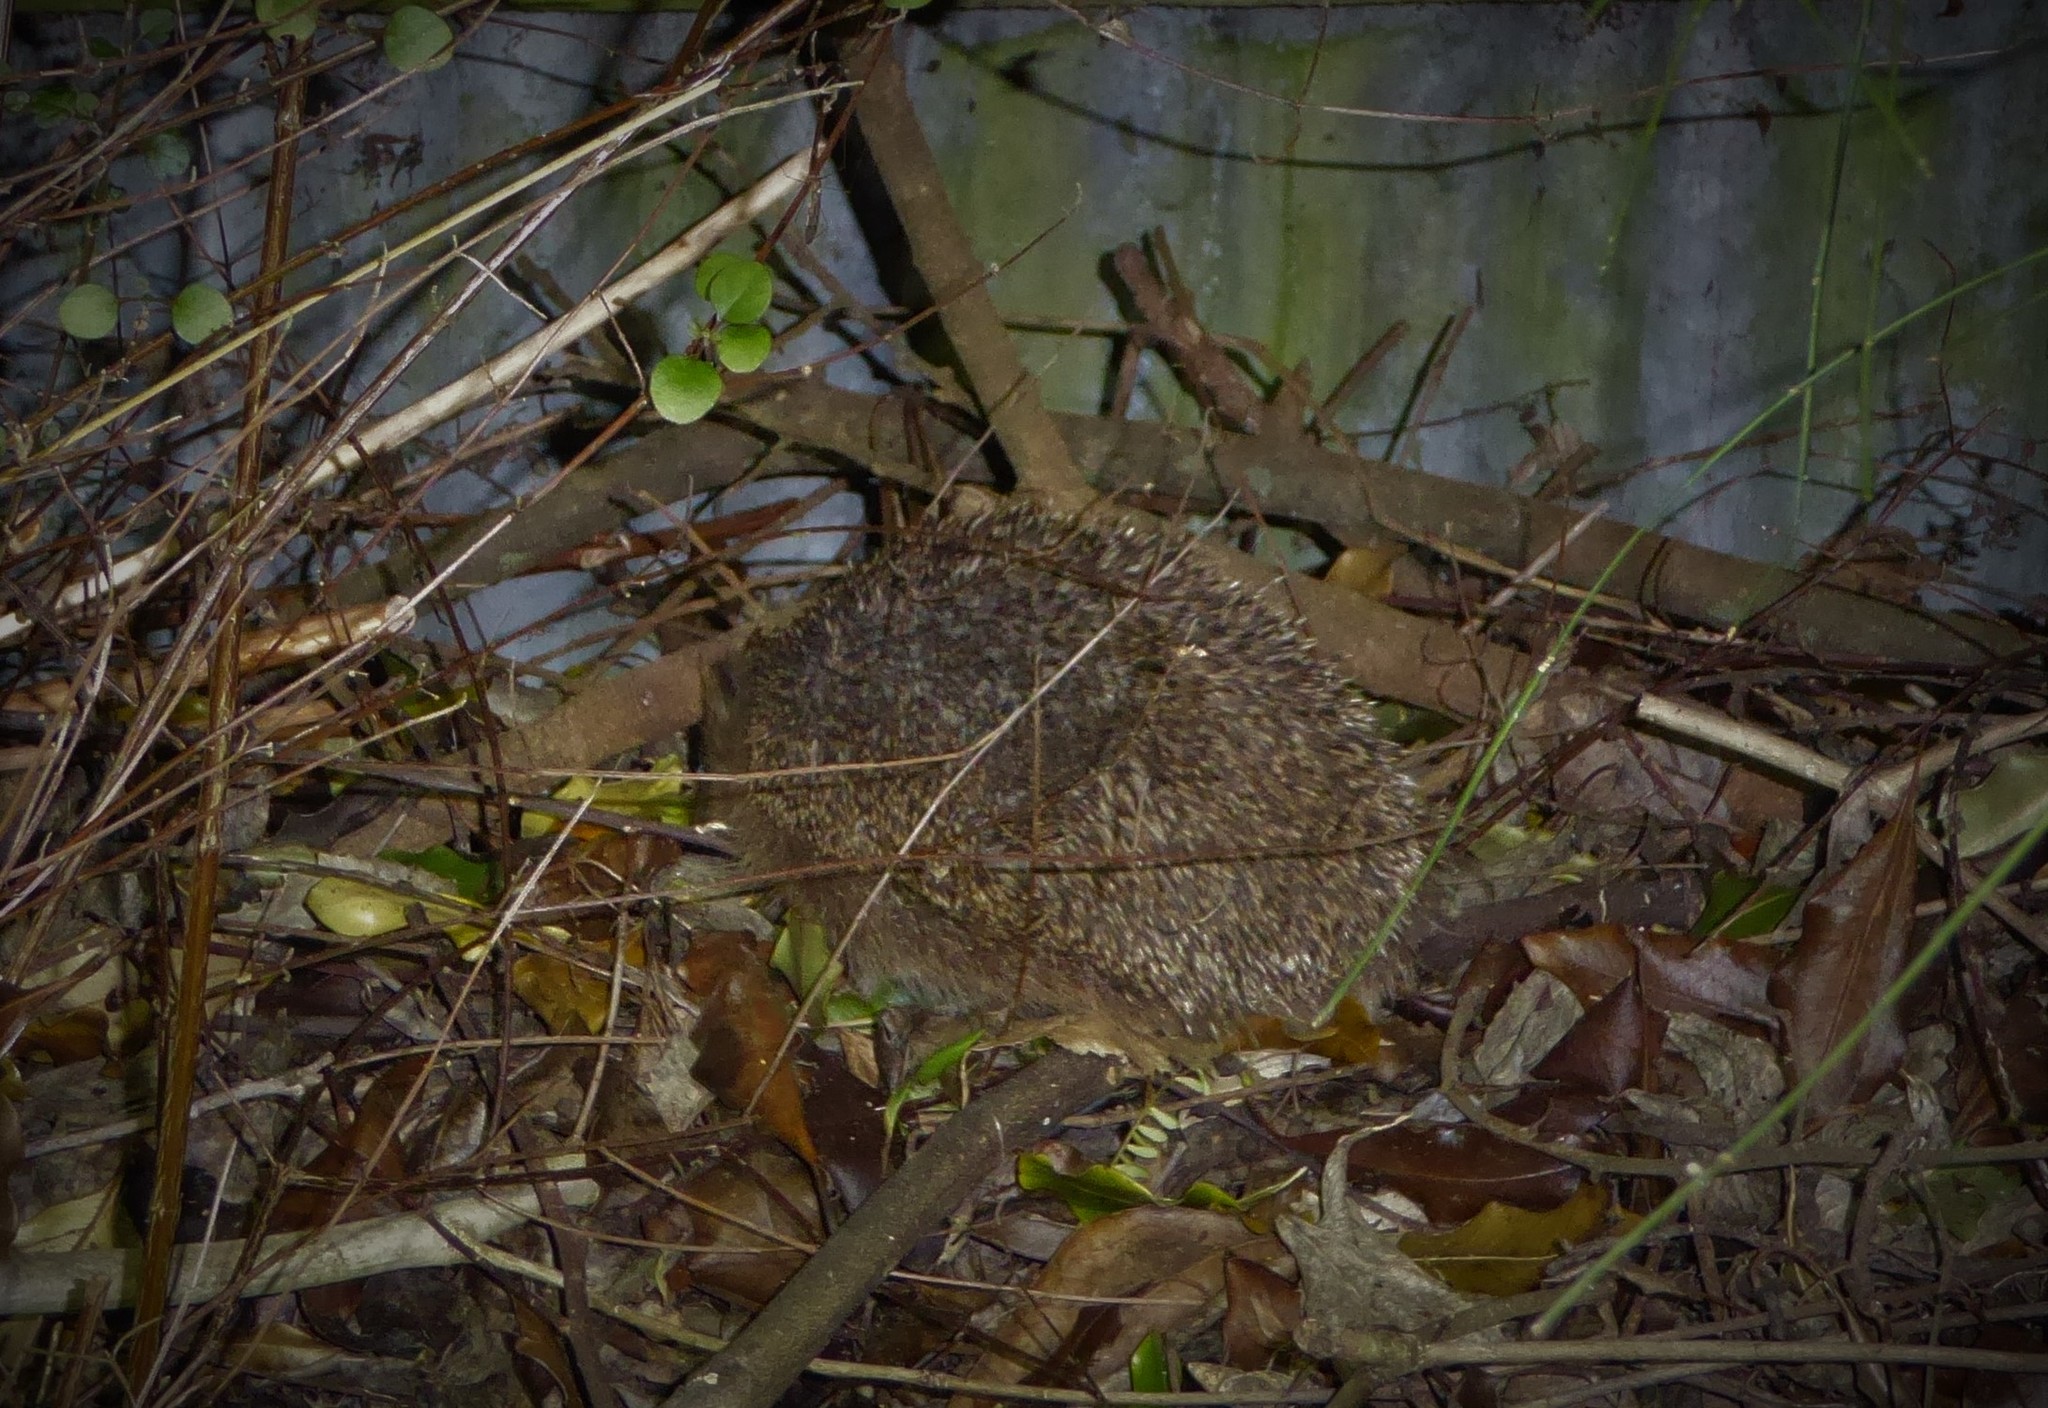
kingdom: Animalia
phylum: Chordata
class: Mammalia
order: Erinaceomorpha
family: Erinaceidae
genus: Erinaceus
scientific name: Erinaceus europaeus
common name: West european hedgehog
